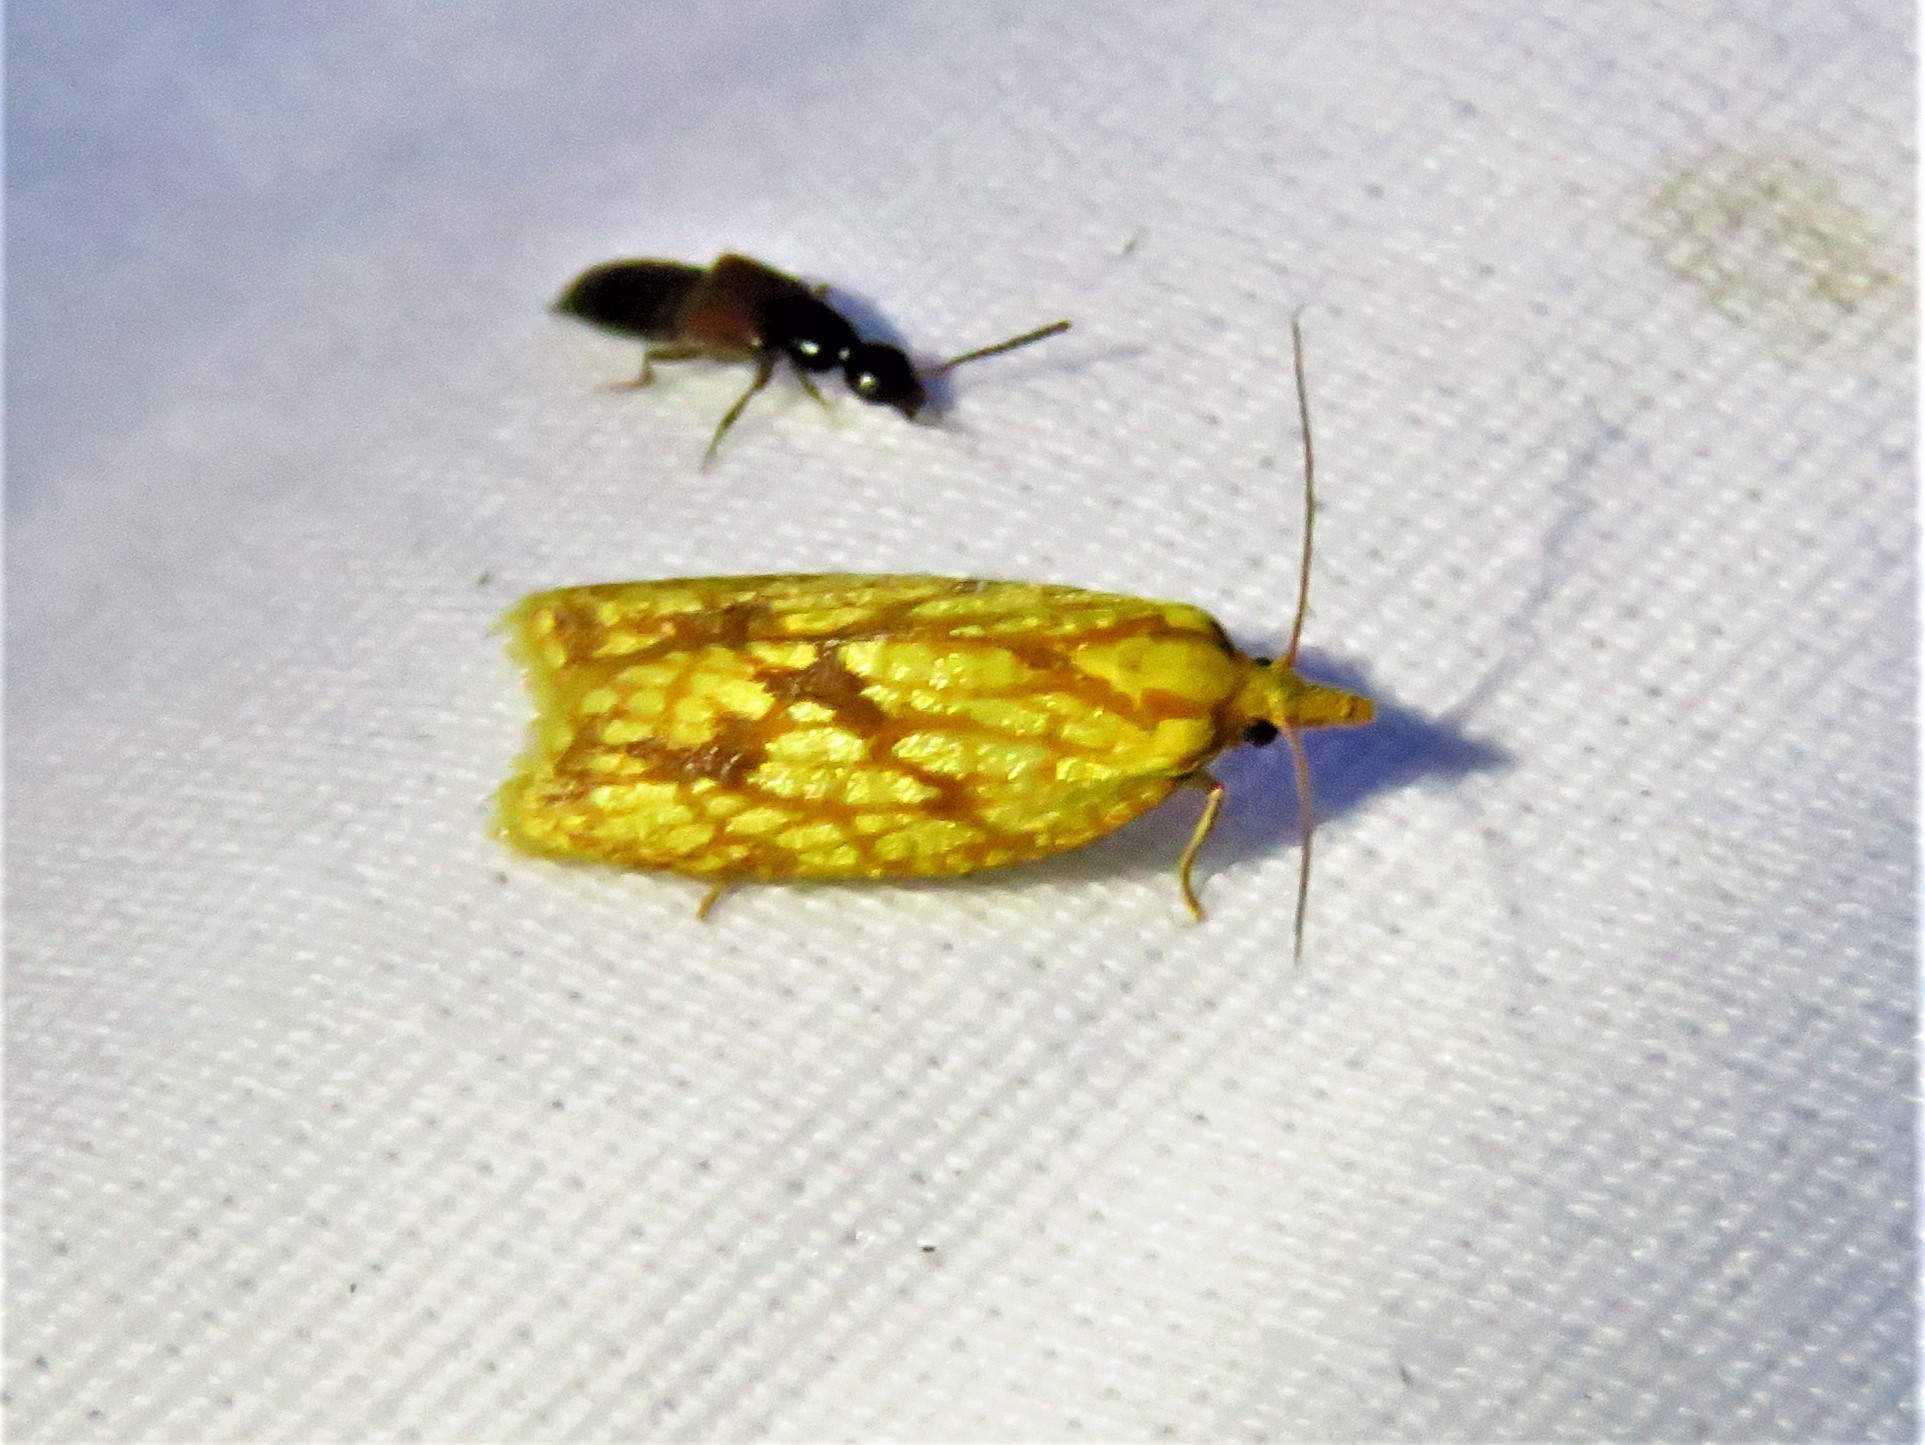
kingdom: Animalia
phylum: Arthropoda
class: Insecta
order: Lepidoptera
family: Tortricidae
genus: Sparganothis
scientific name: Sparganothis sulfureana
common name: Sparganothis fruitworm moth
